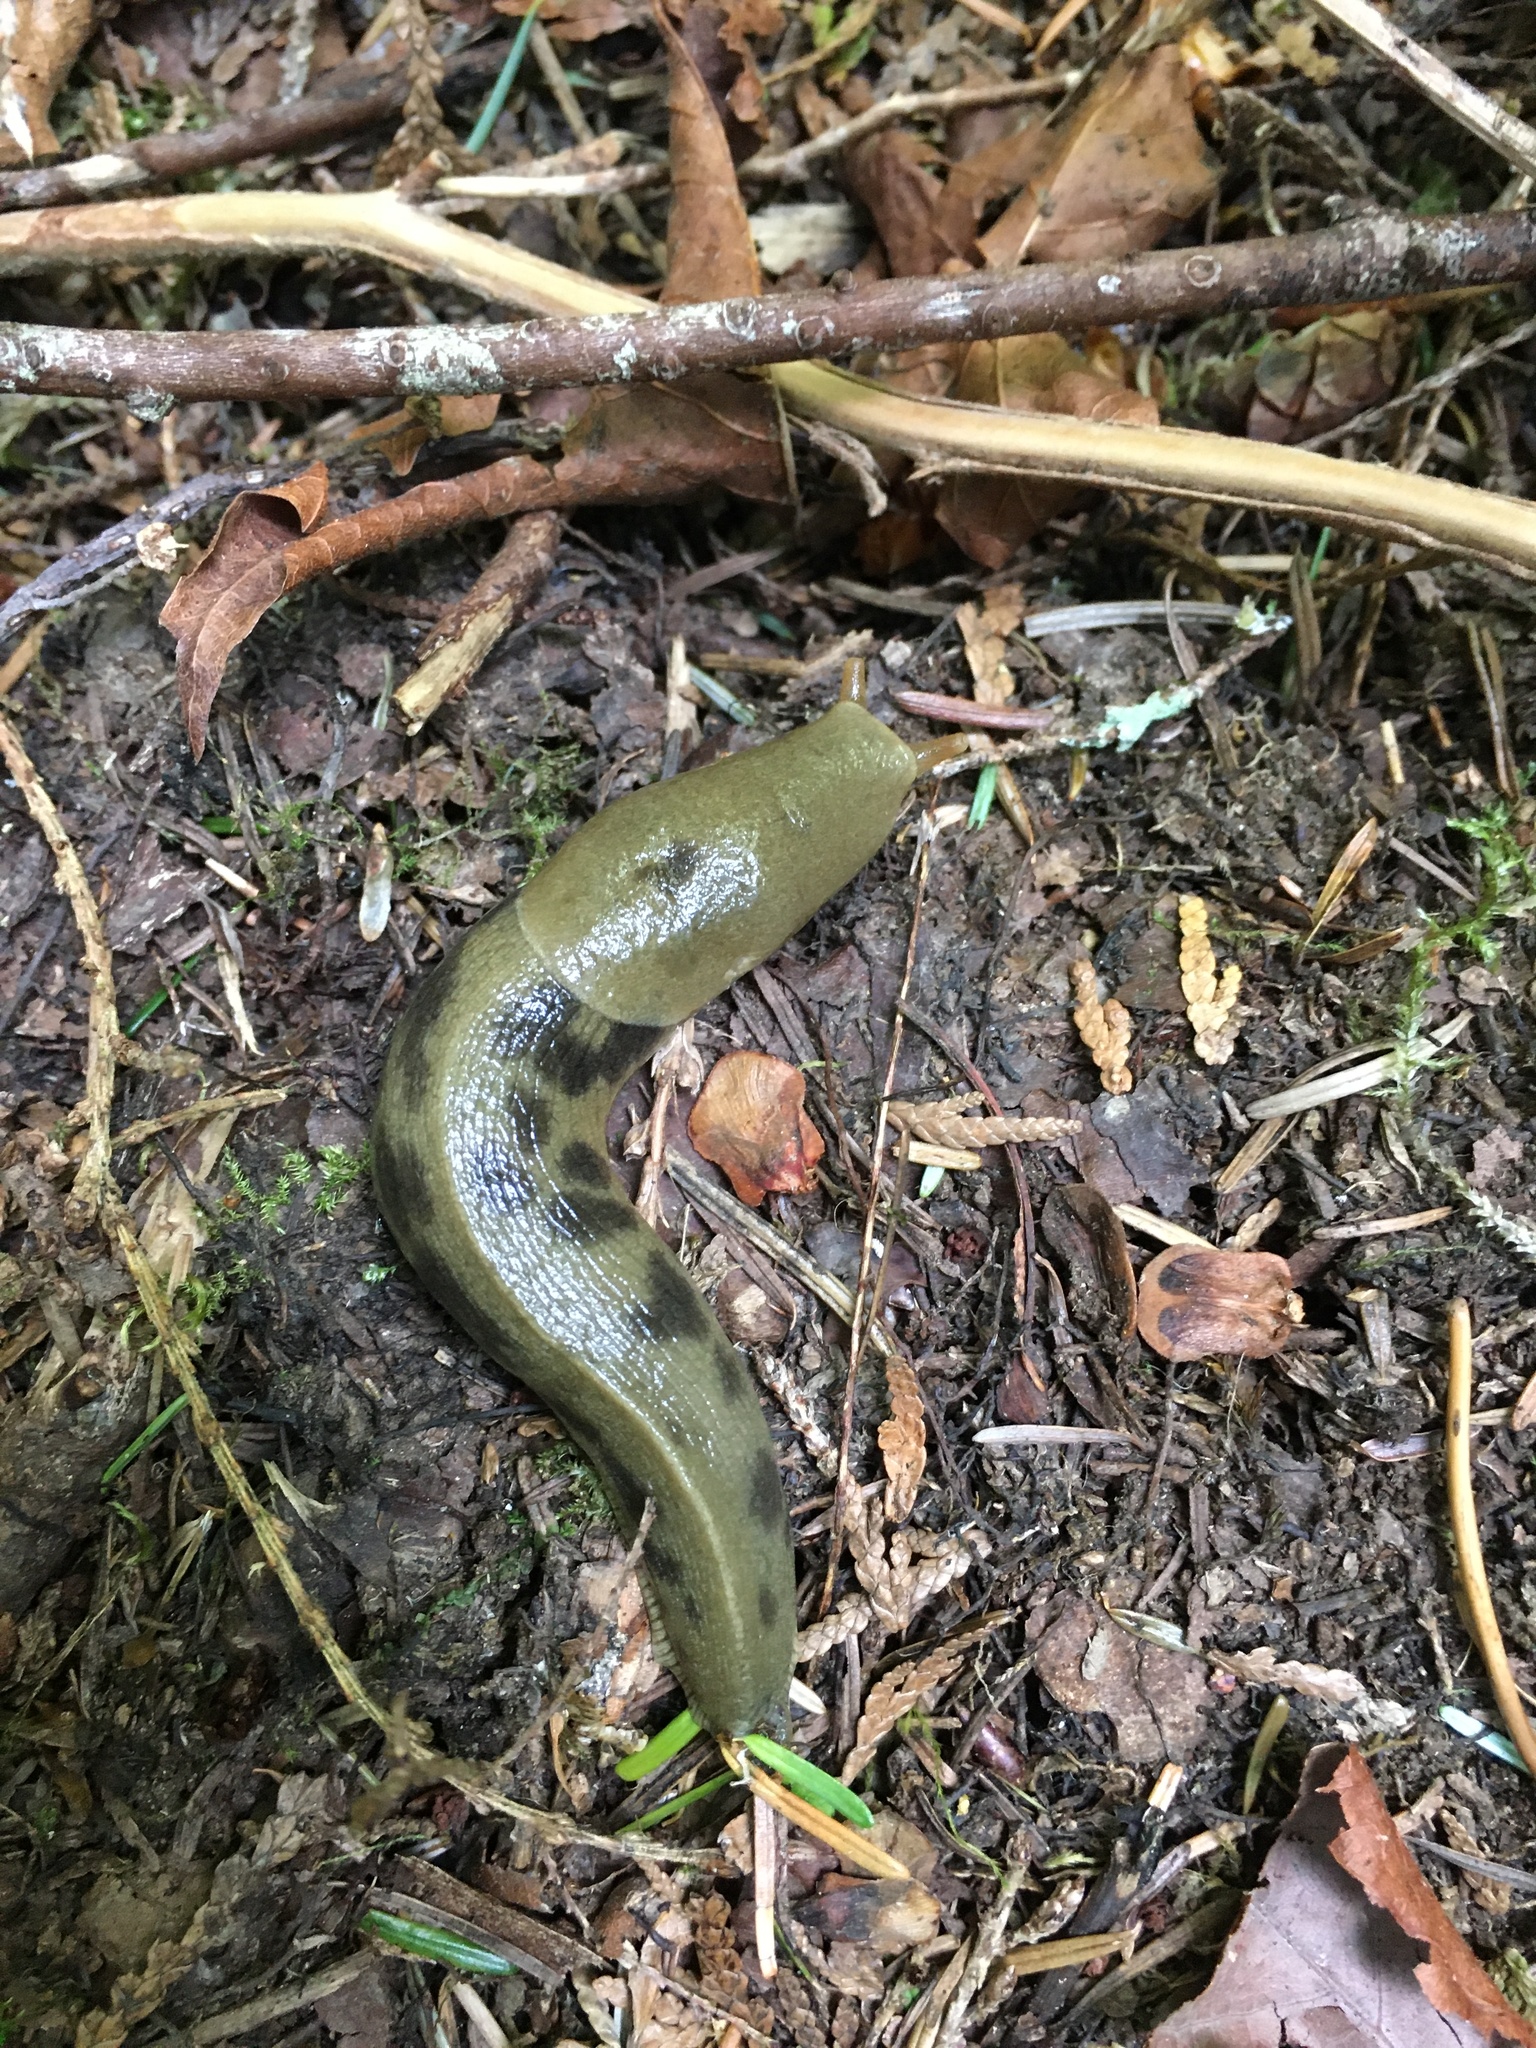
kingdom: Animalia
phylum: Mollusca
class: Gastropoda
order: Stylommatophora
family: Ariolimacidae
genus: Ariolimax
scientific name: Ariolimax columbianus
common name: Pacific banana slug
